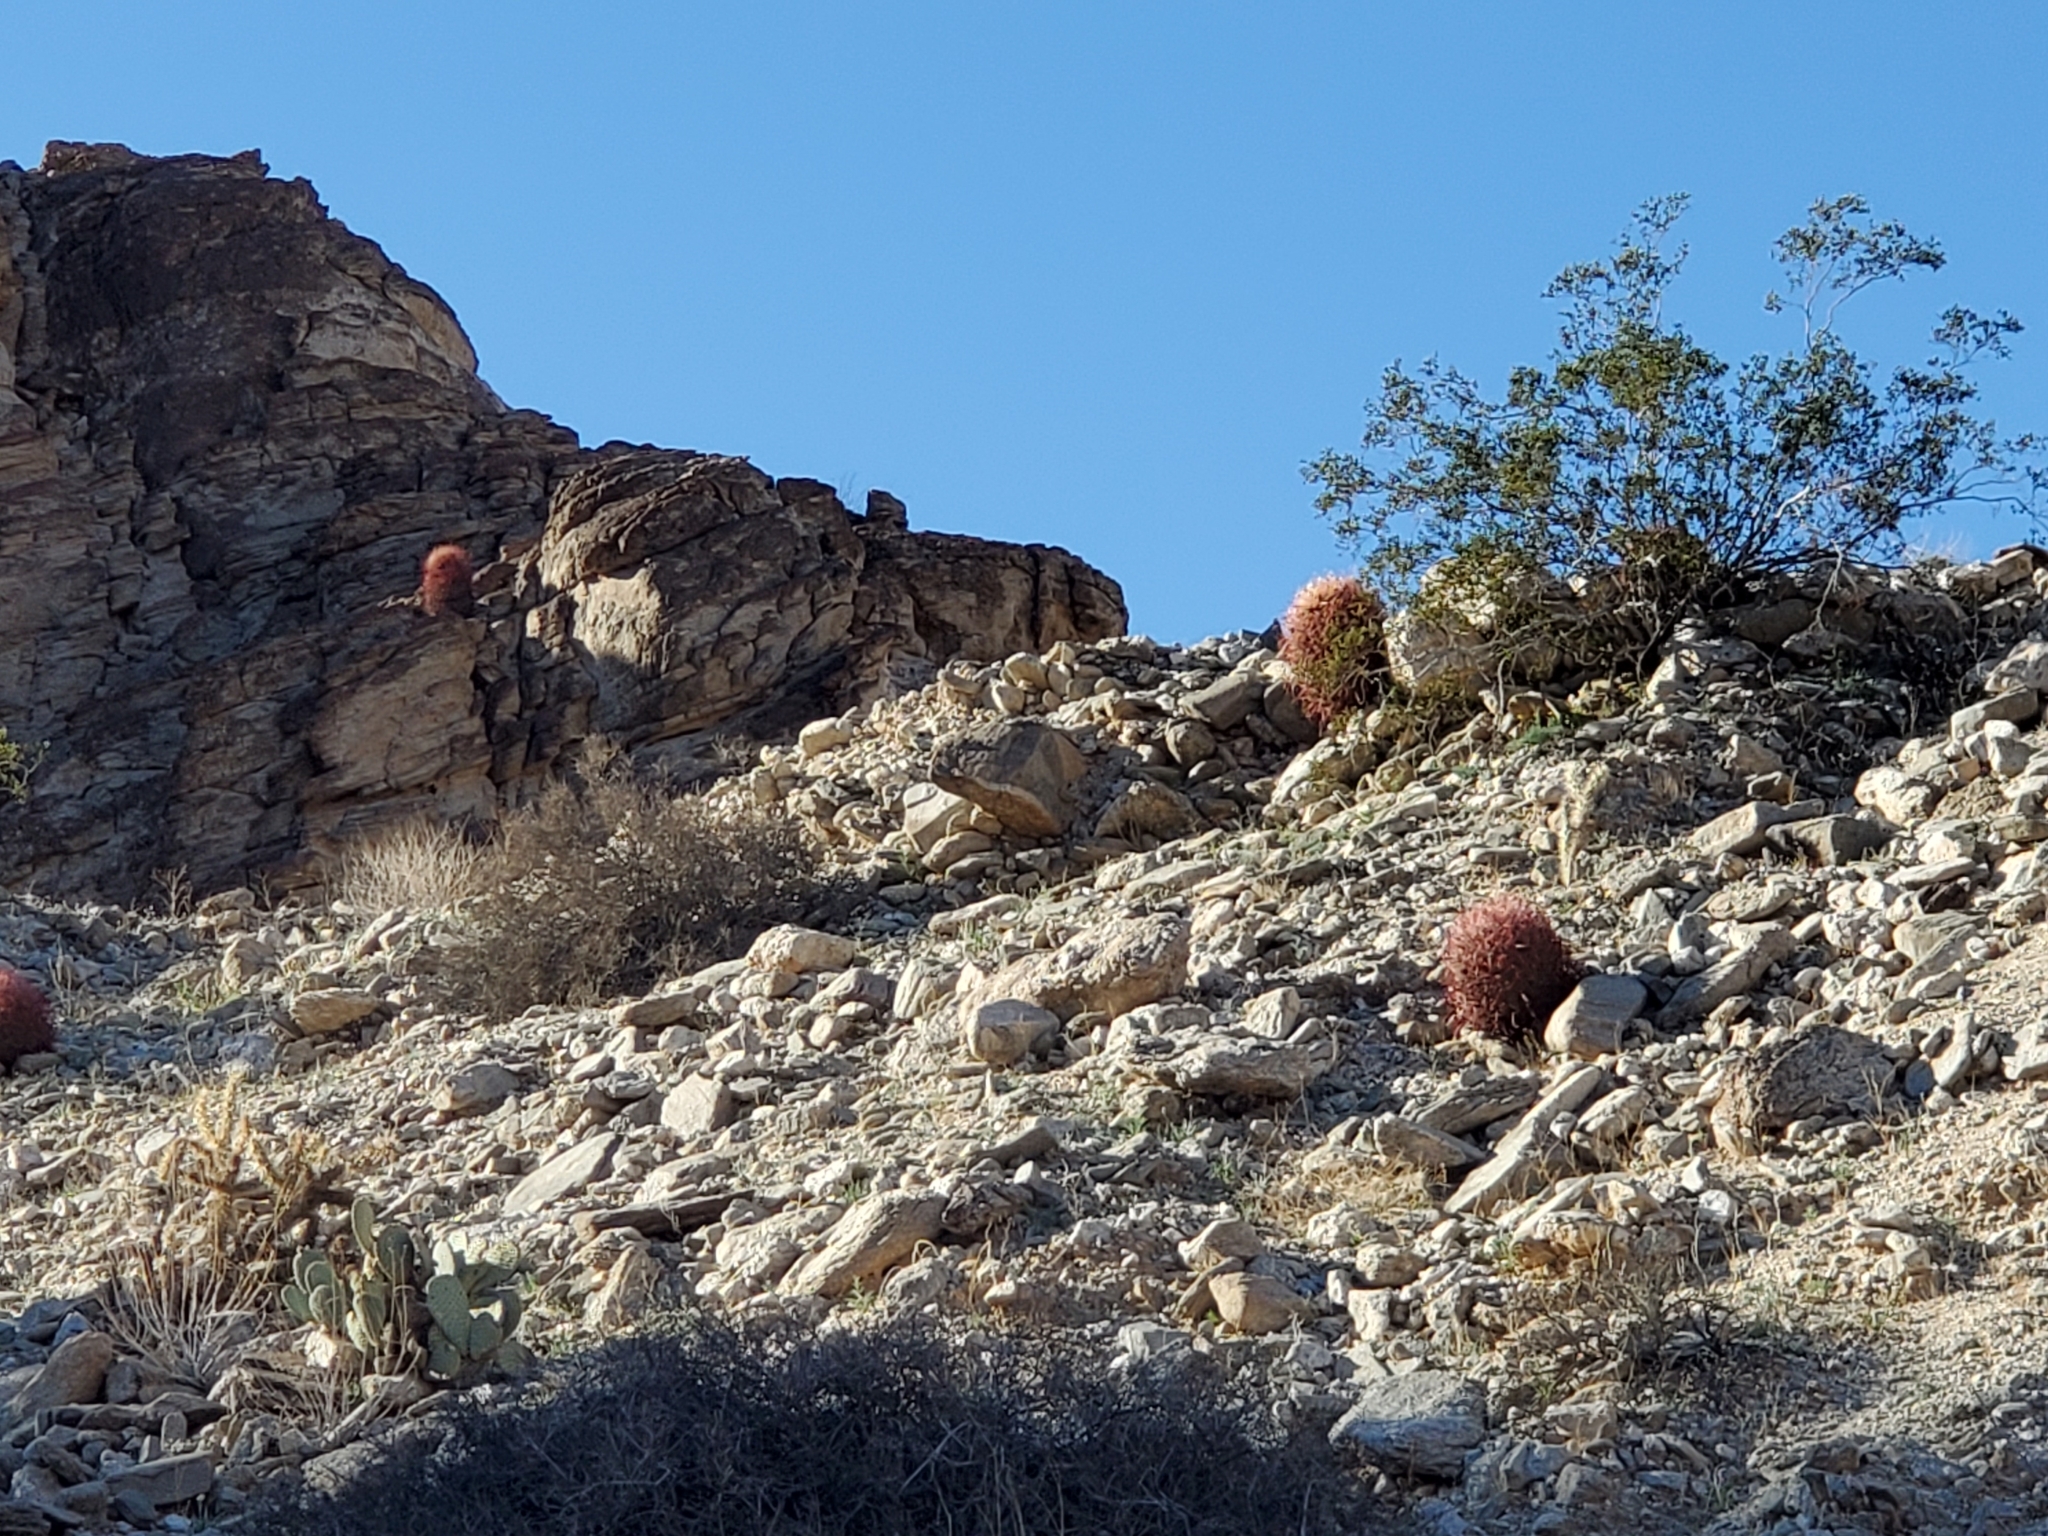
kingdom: Plantae
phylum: Tracheophyta
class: Magnoliopsida
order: Caryophyllales
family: Cactaceae
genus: Ferocactus
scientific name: Ferocactus cylindraceus
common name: California barrel cactus
